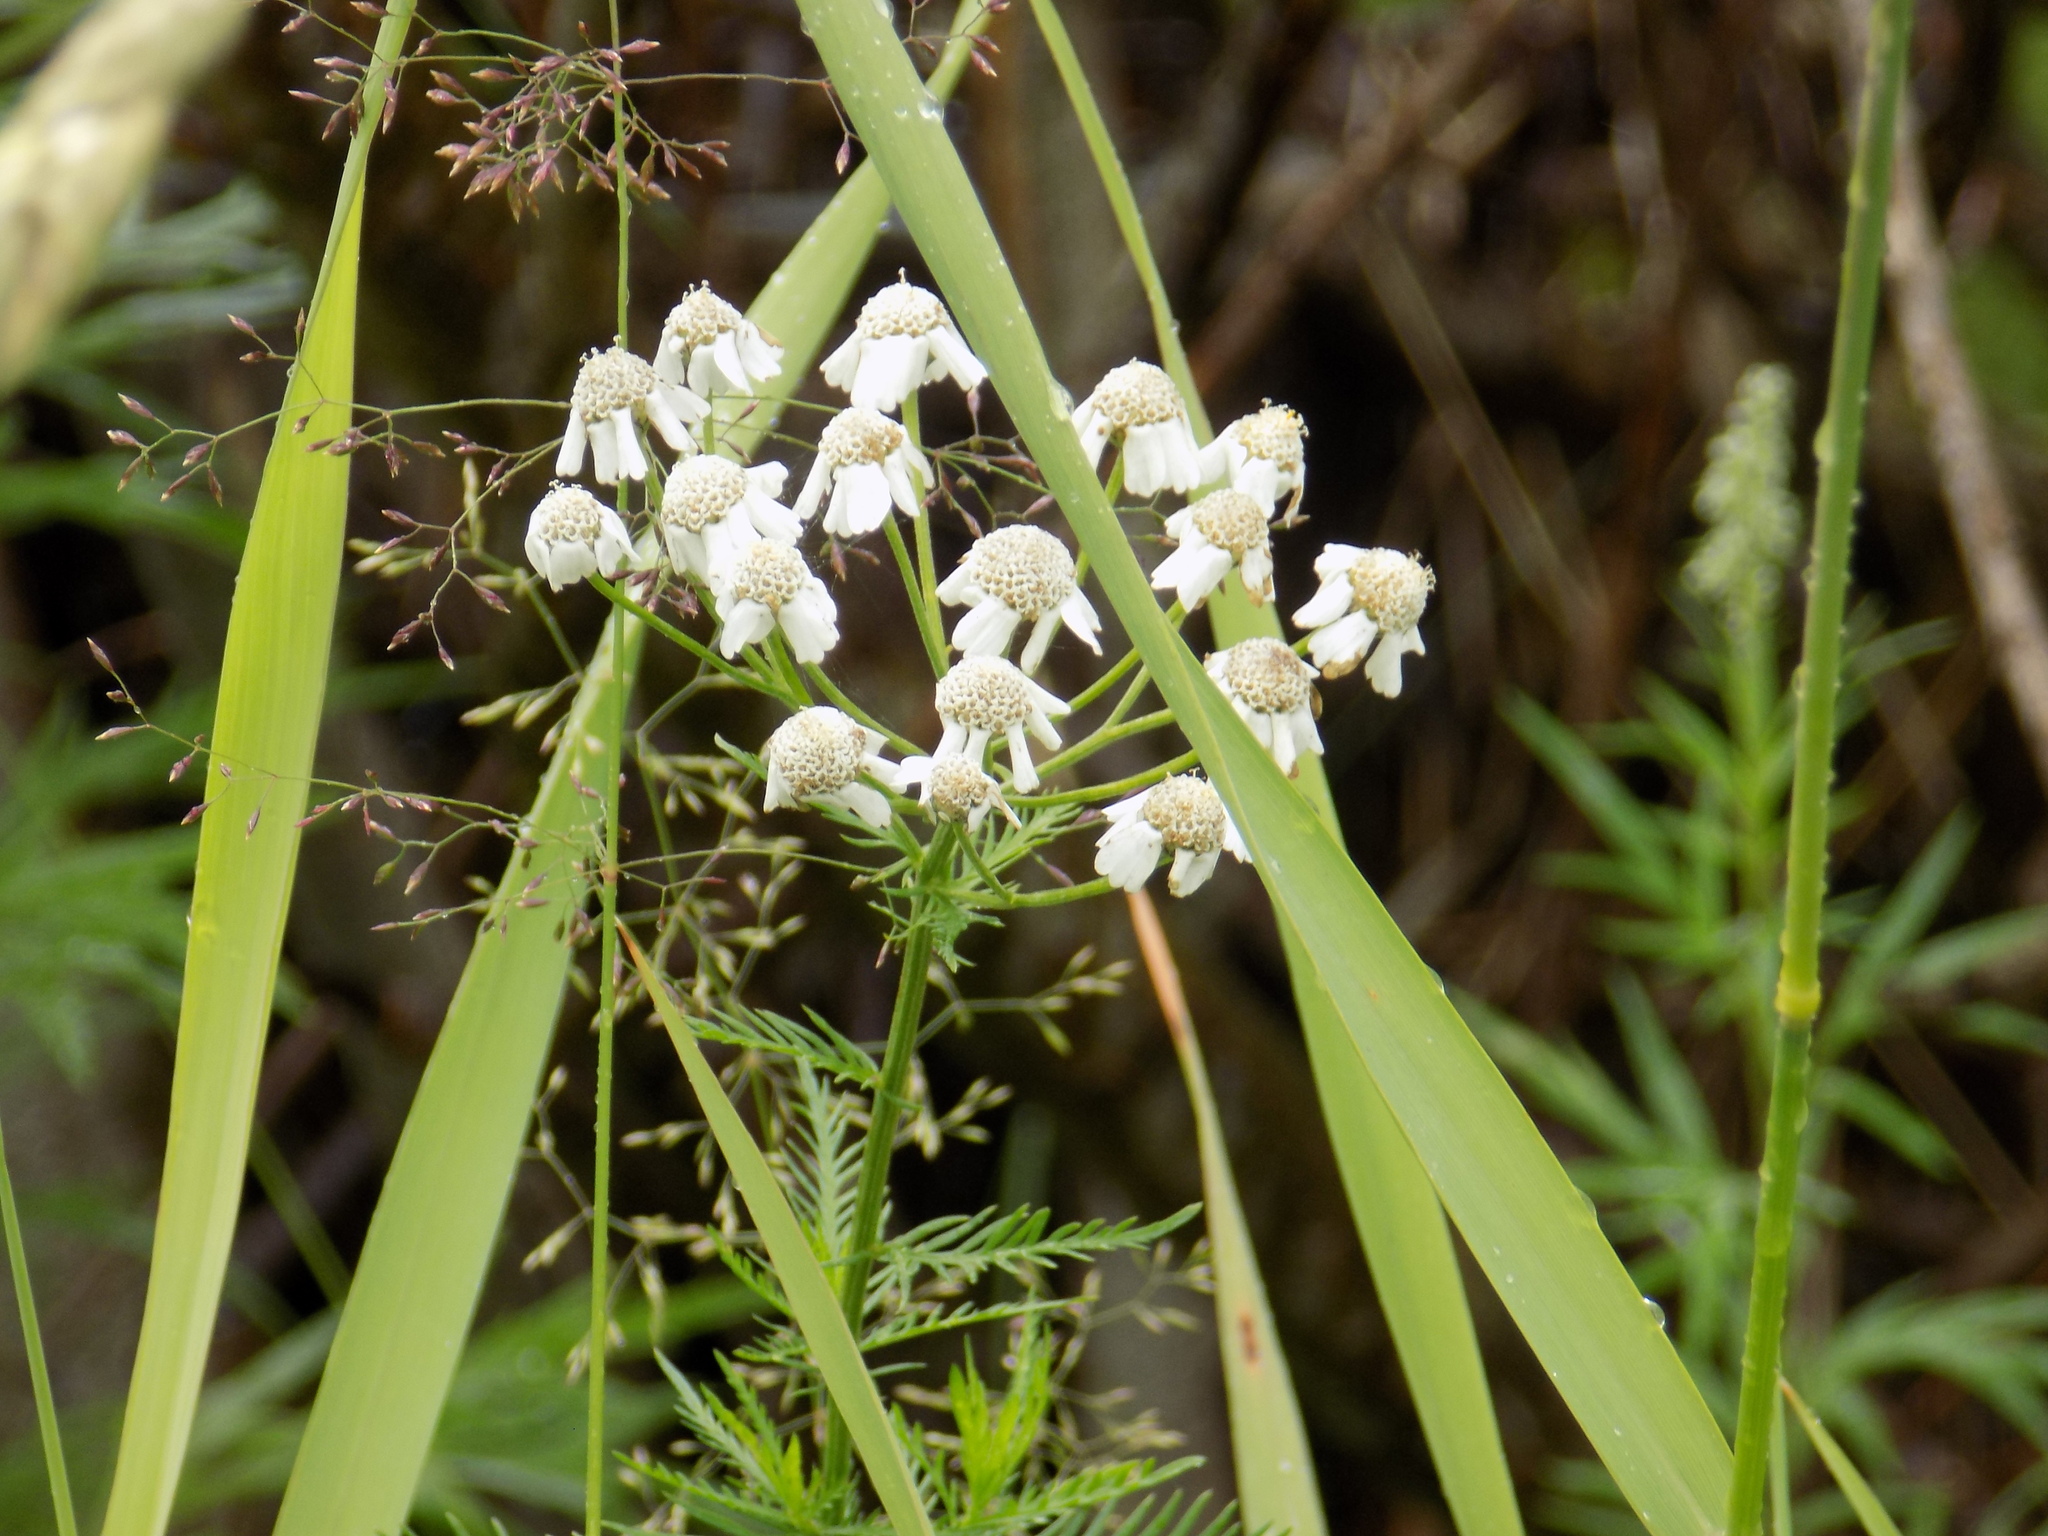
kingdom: Plantae
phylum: Tracheophyta
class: Magnoliopsida
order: Asterales
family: Asteraceae
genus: Achillea
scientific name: Achillea impatiens
